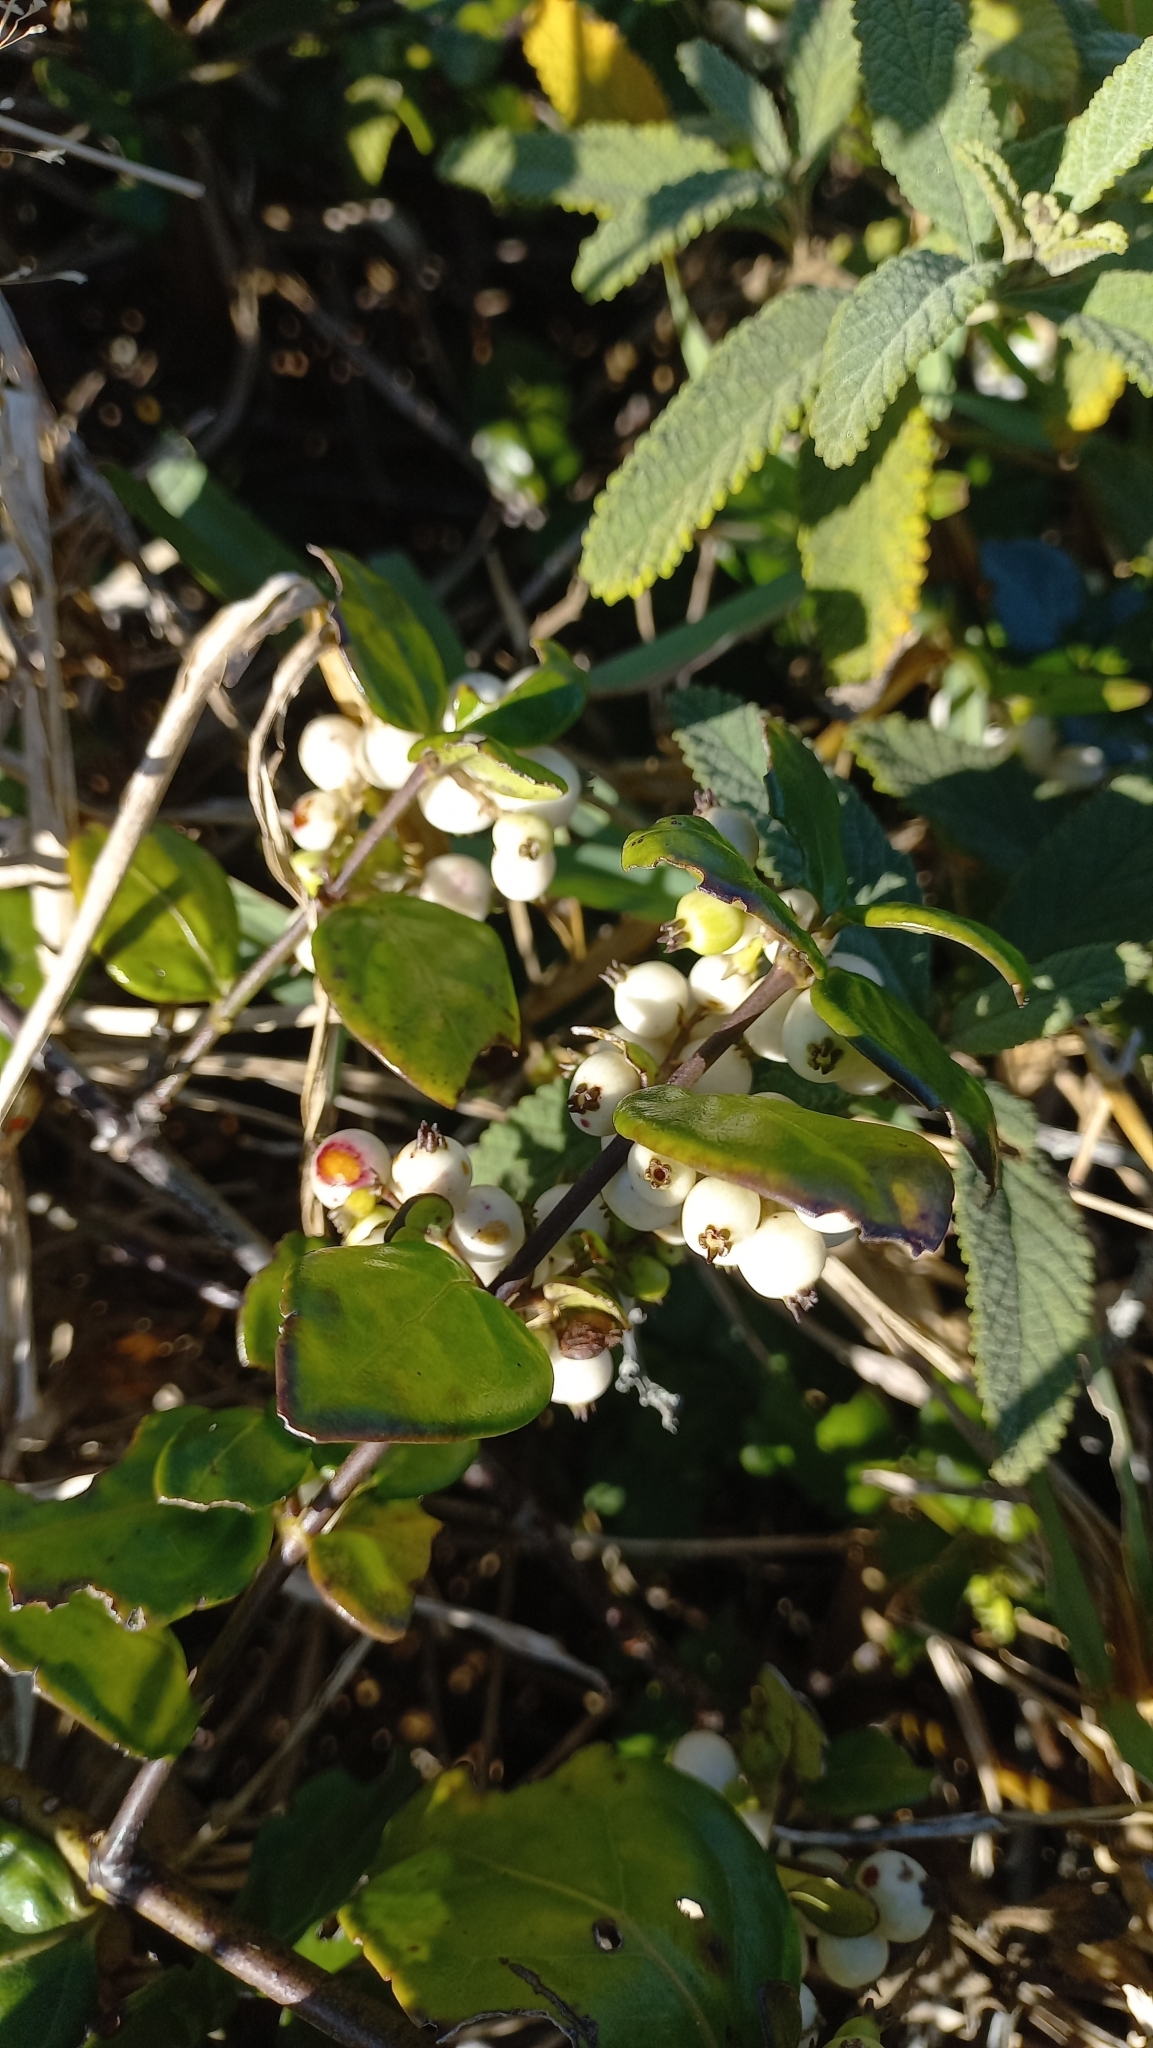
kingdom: Plantae
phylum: Tracheophyta
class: Magnoliopsida
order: Gentianales
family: Rubiaceae
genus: Chiococca
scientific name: Chiococca alba
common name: Snowberry
